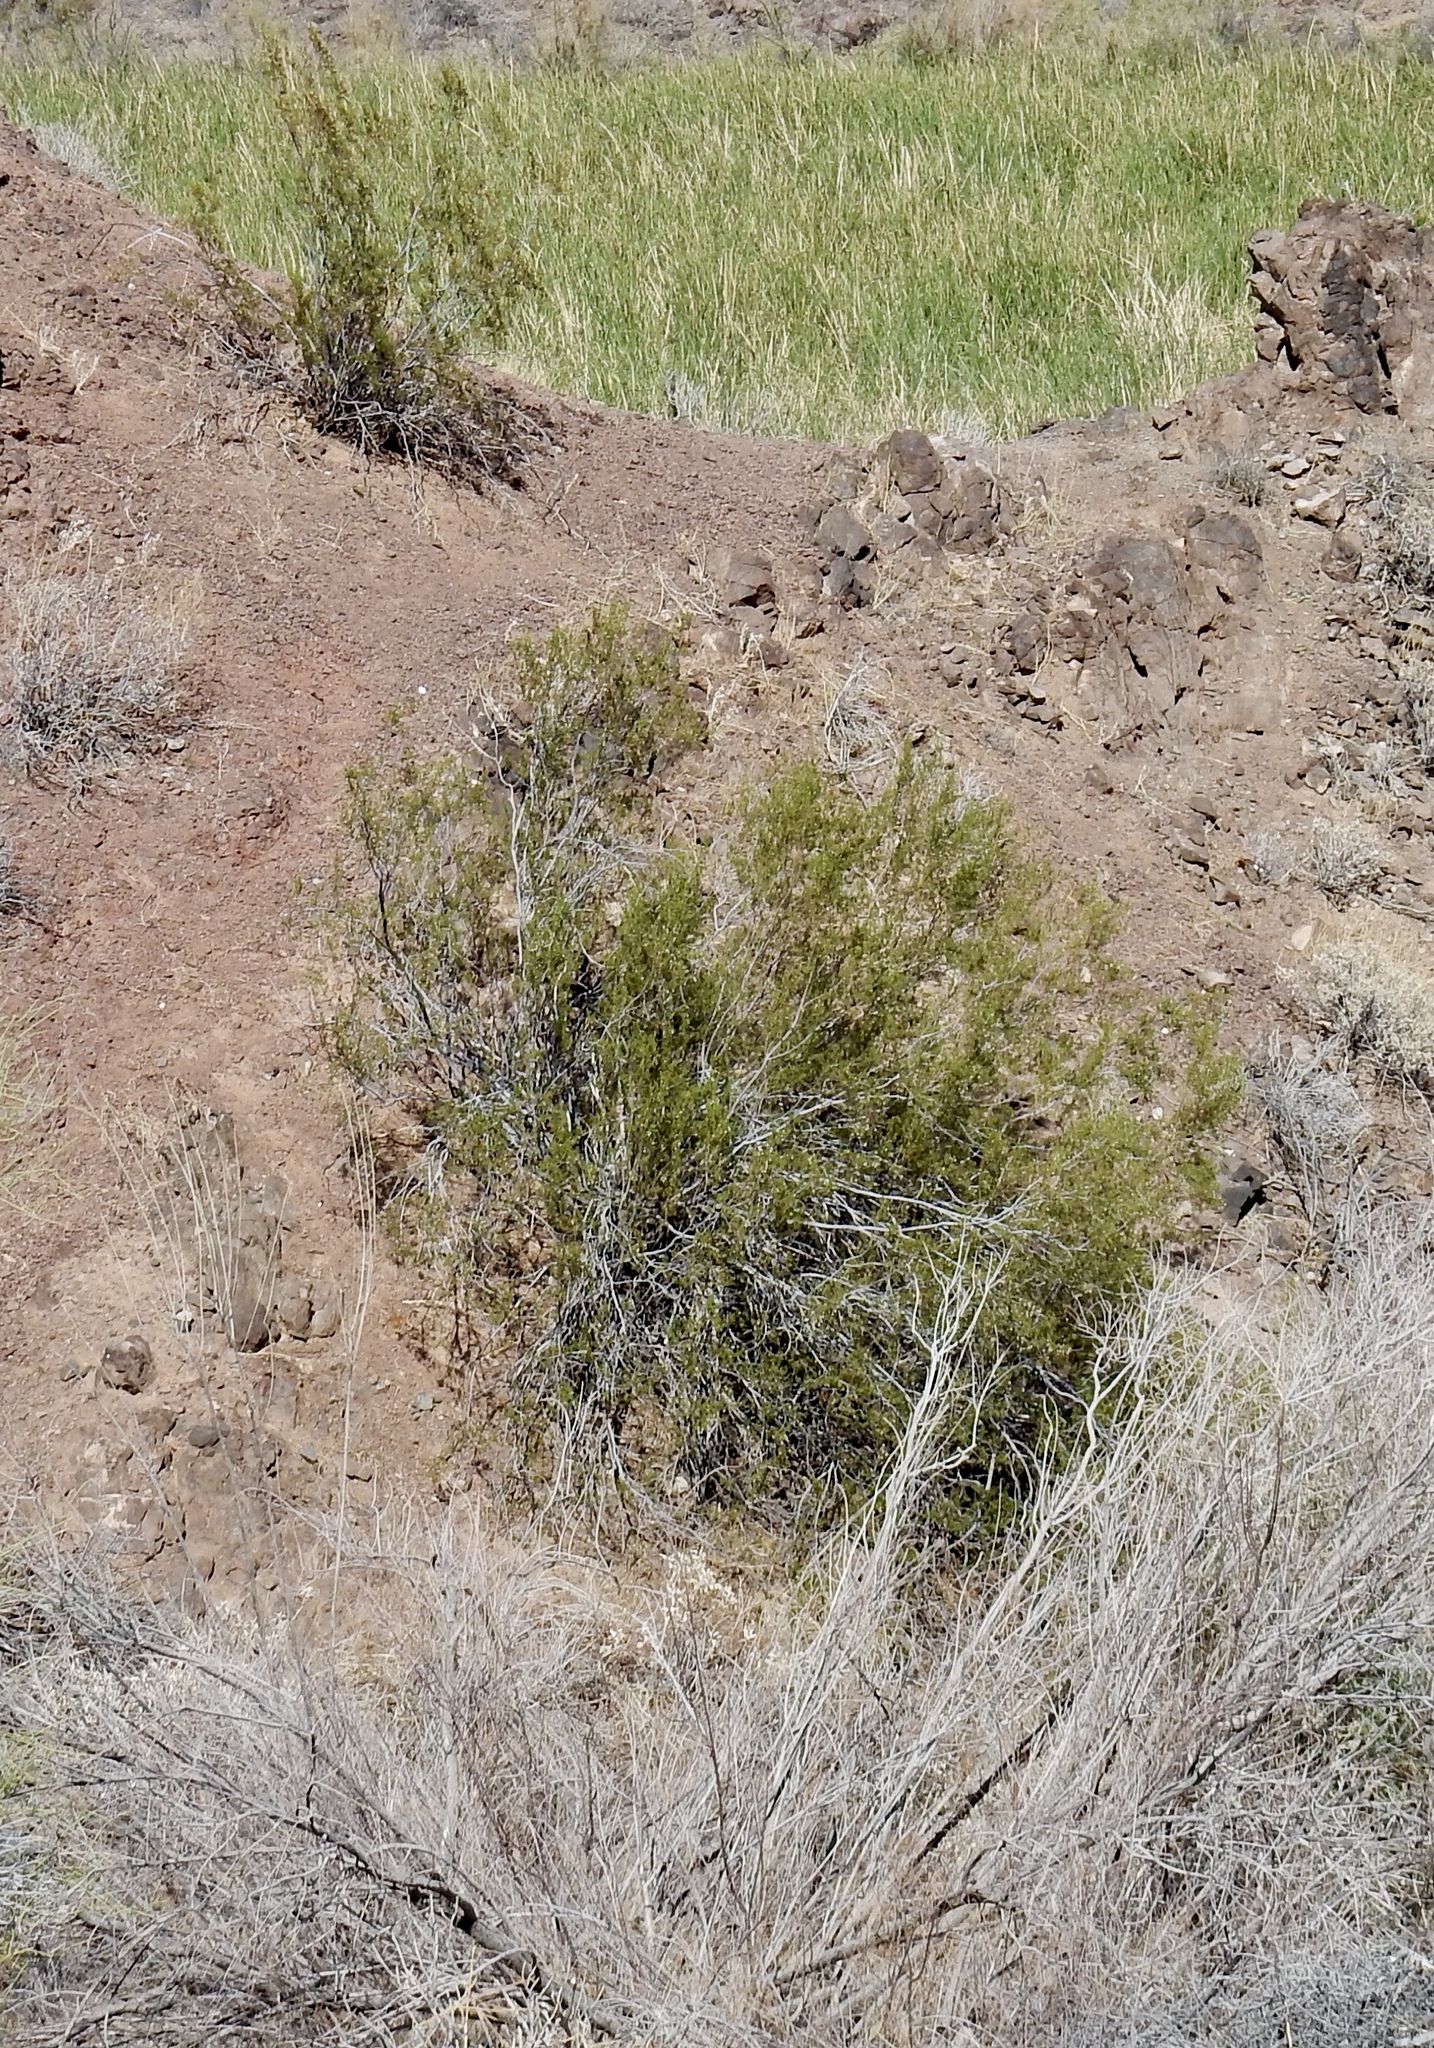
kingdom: Plantae
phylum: Tracheophyta
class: Magnoliopsida
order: Zygophyllales
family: Zygophyllaceae
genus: Larrea
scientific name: Larrea tridentata
